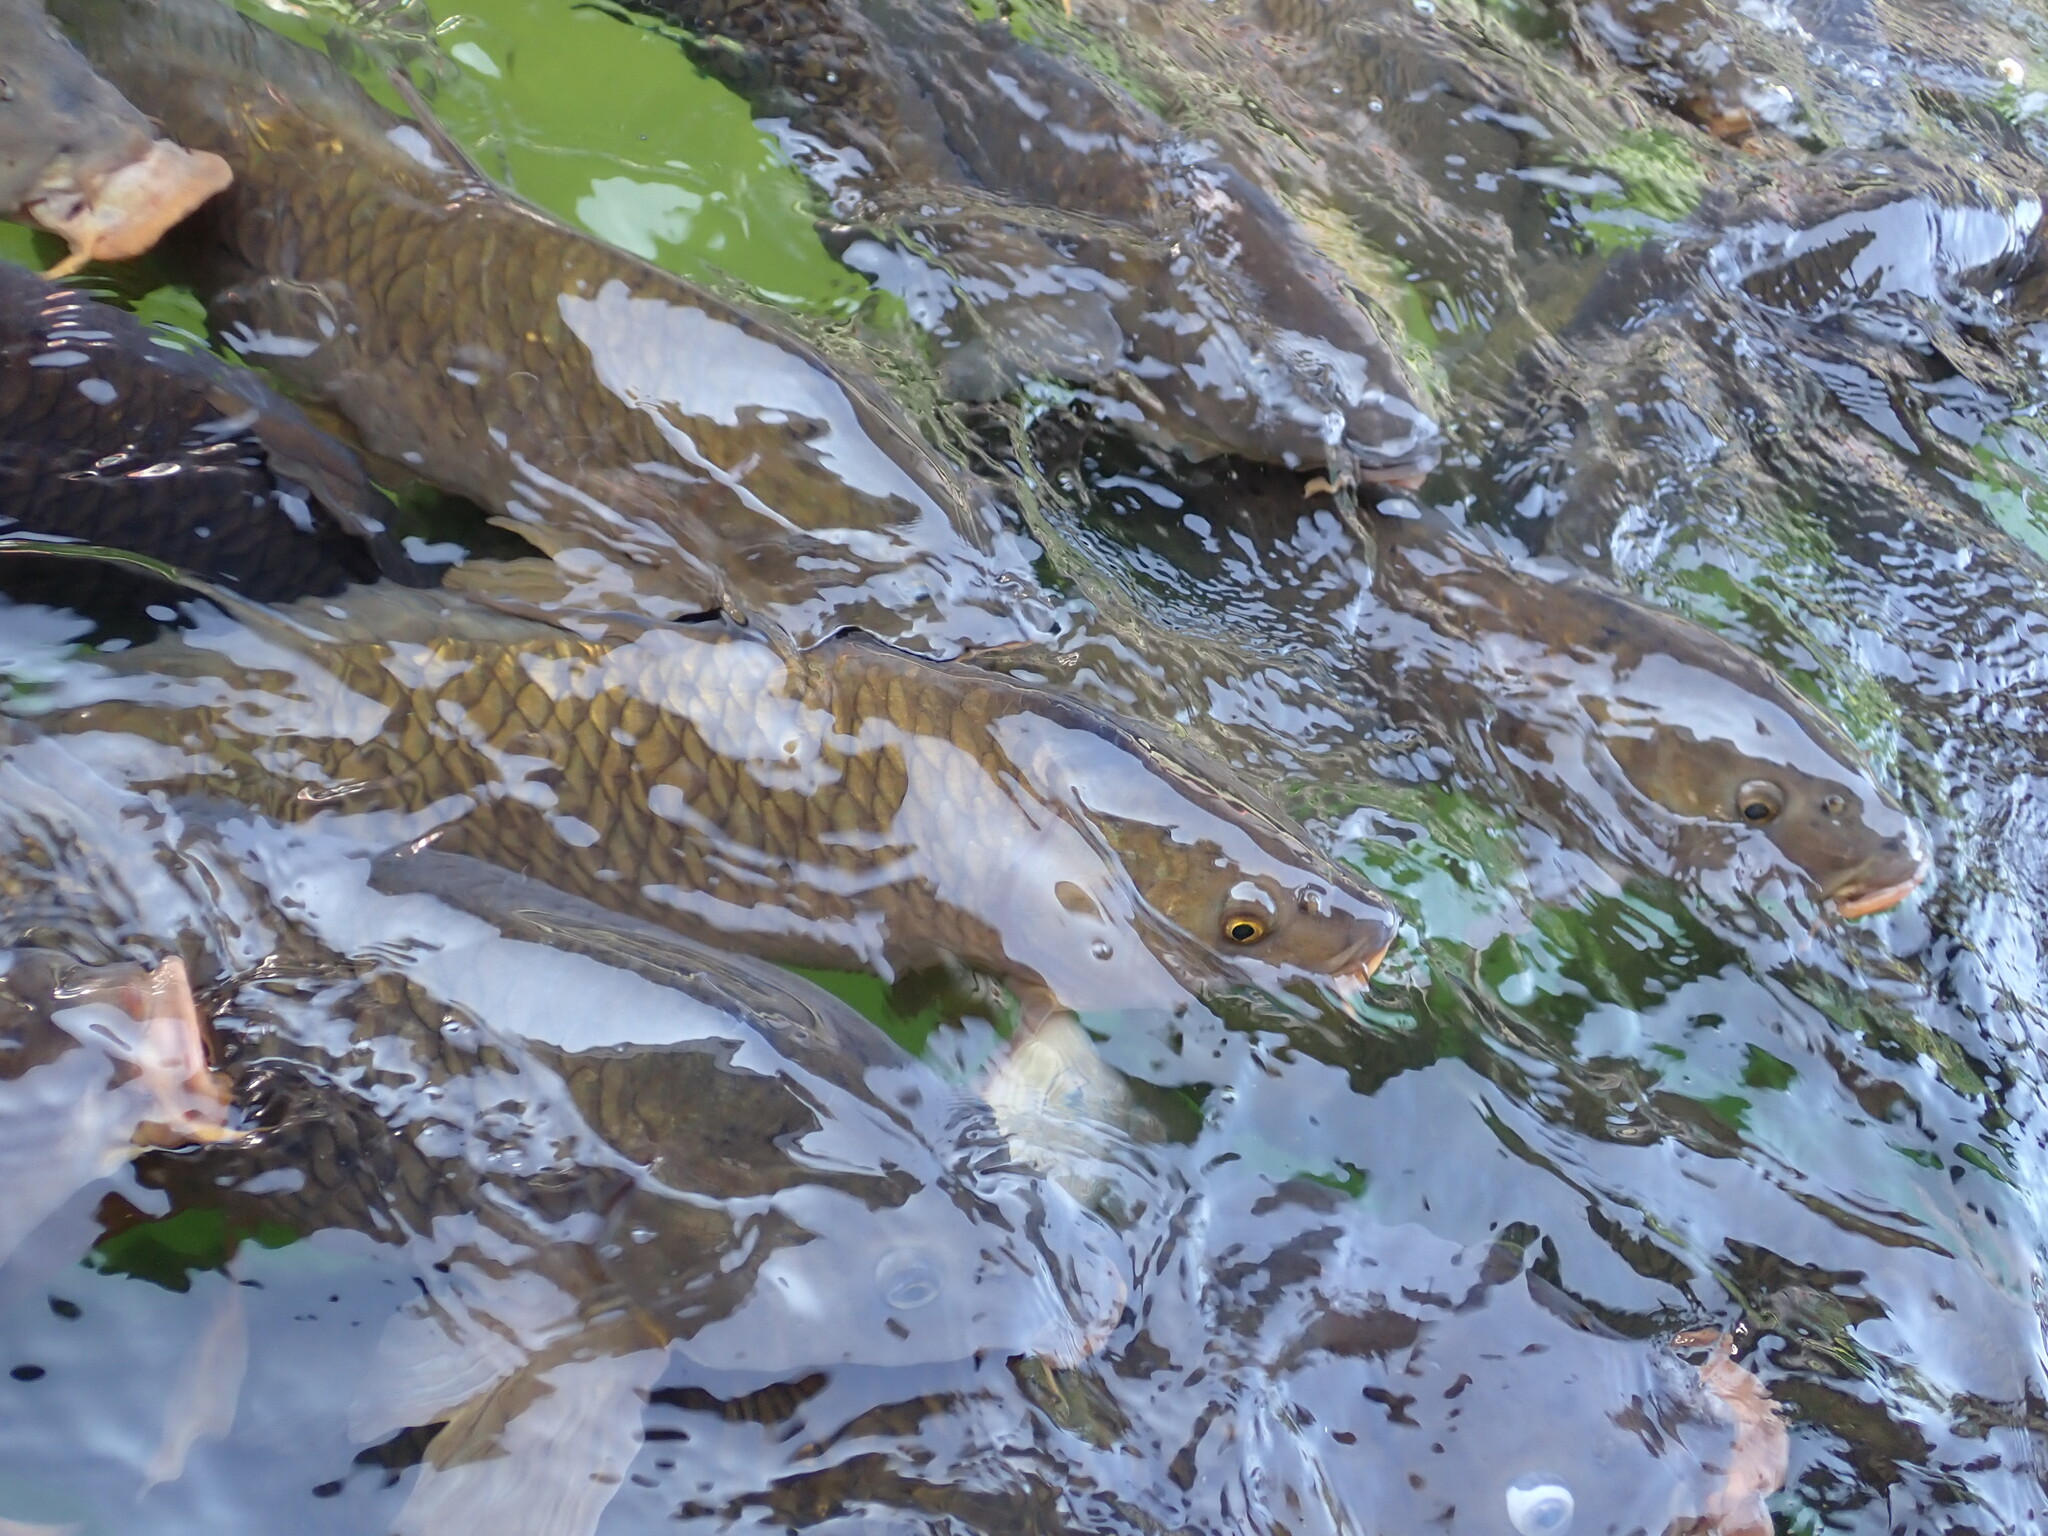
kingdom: Animalia
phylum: Chordata
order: Cypriniformes
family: Cyprinidae
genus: Cyprinus
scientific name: Cyprinus carpio
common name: Common carp
